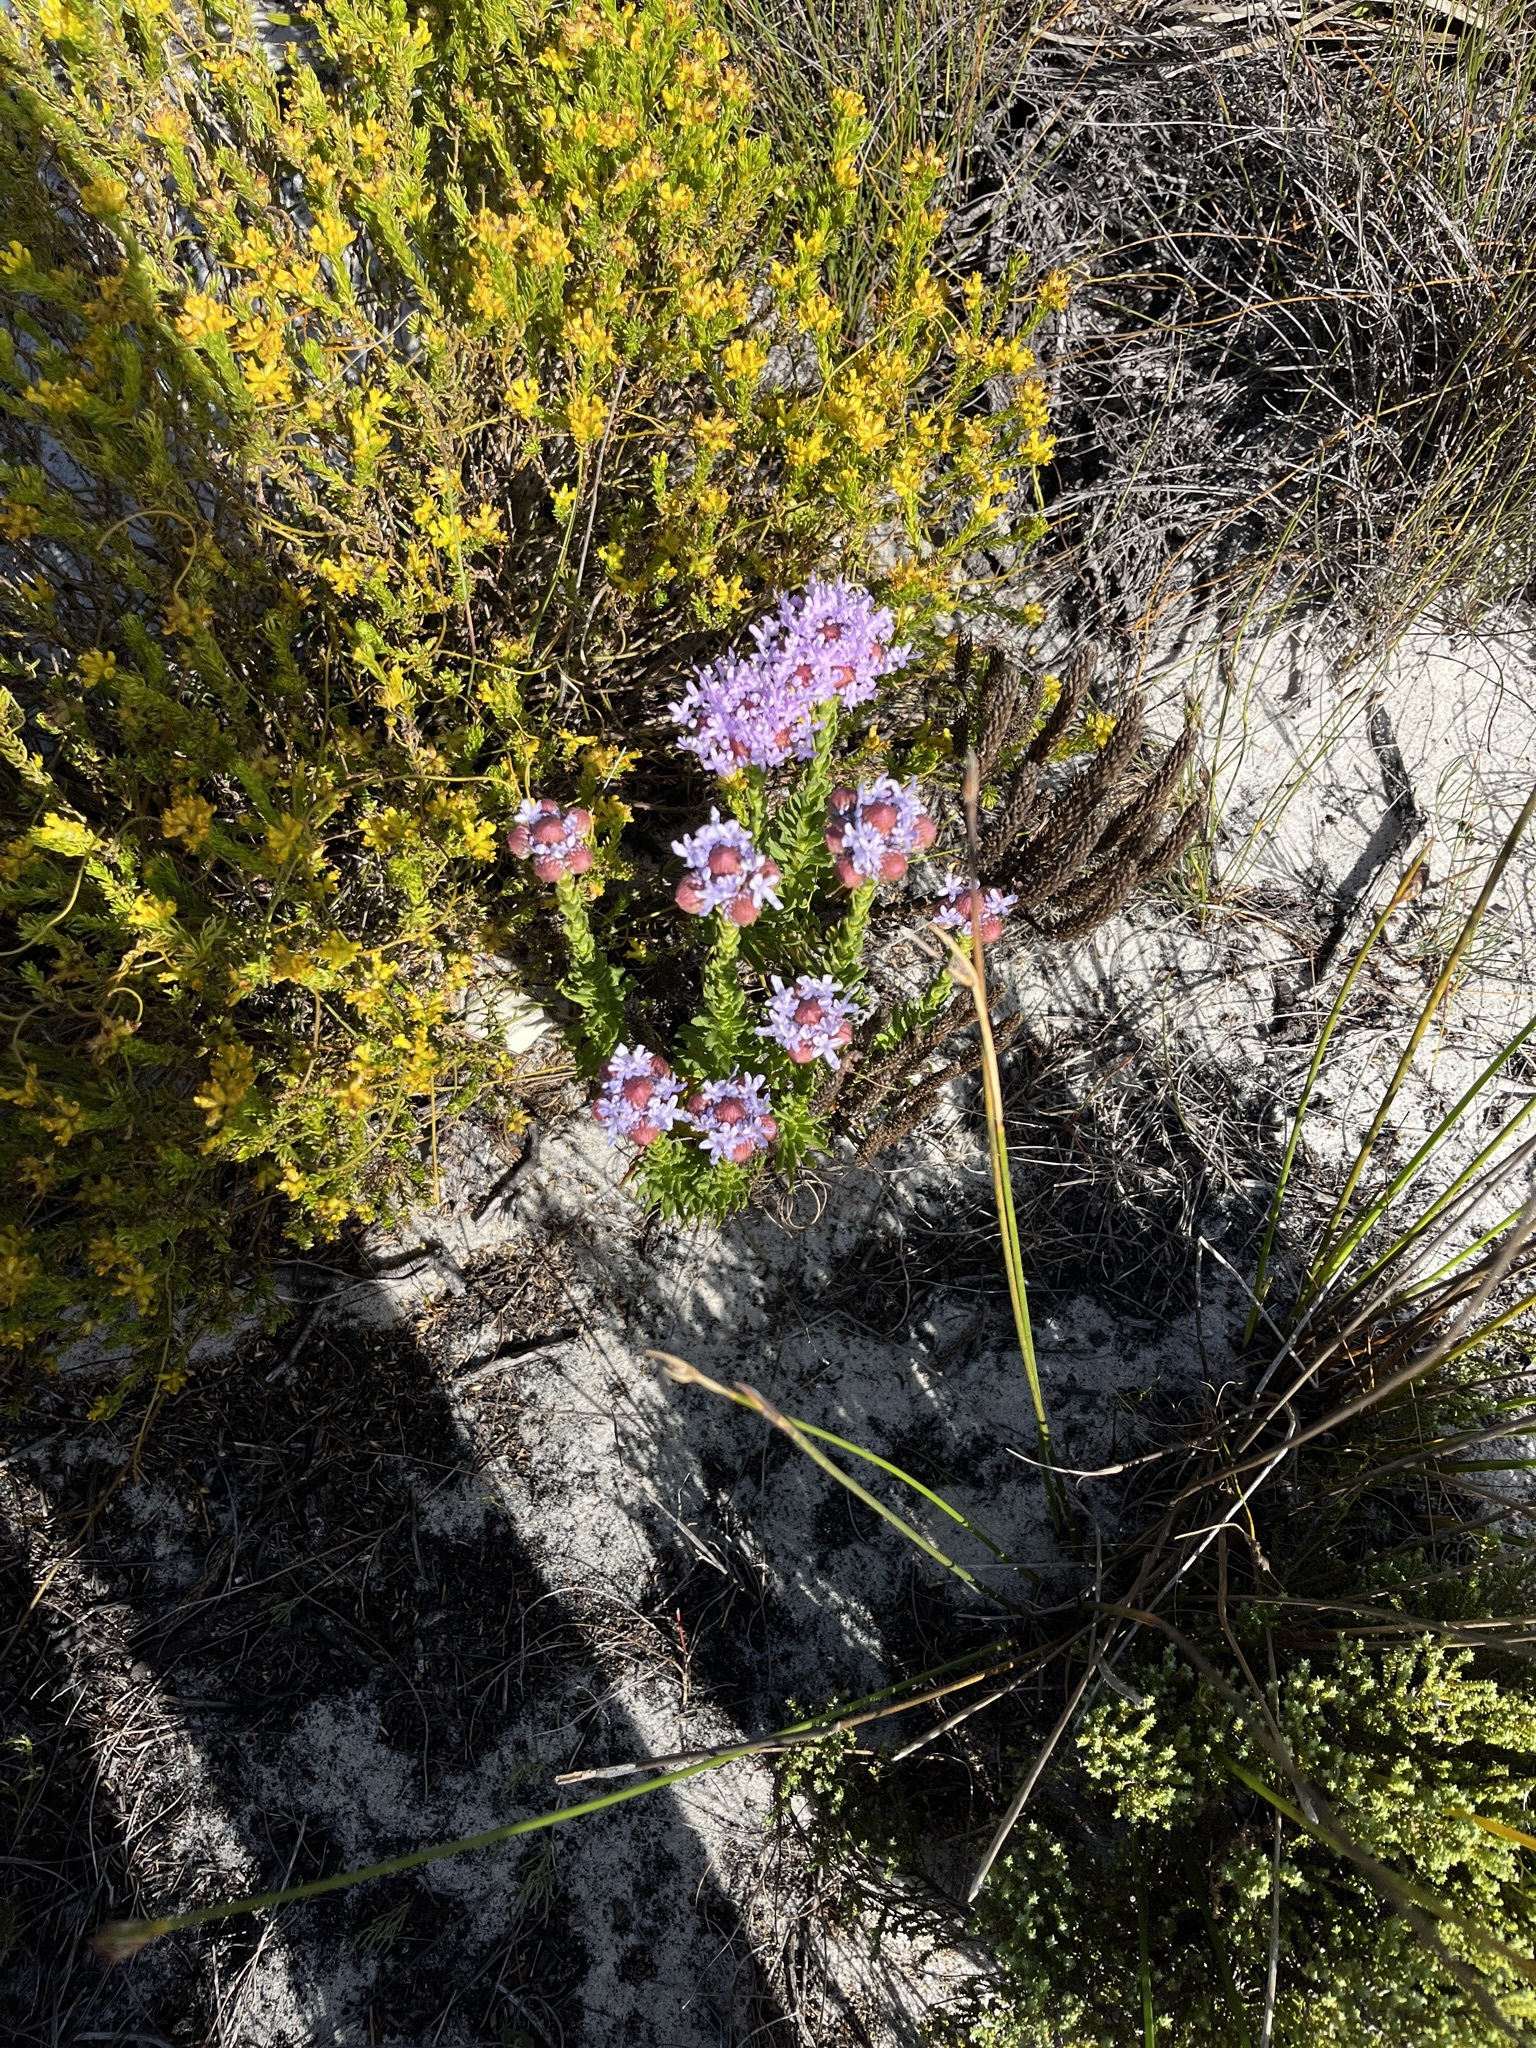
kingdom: Plantae
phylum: Tracheophyta
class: Magnoliopsida
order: Lamiales
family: Scrophulariaceae
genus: Pseudoselago
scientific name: Pseudoselago serrata
